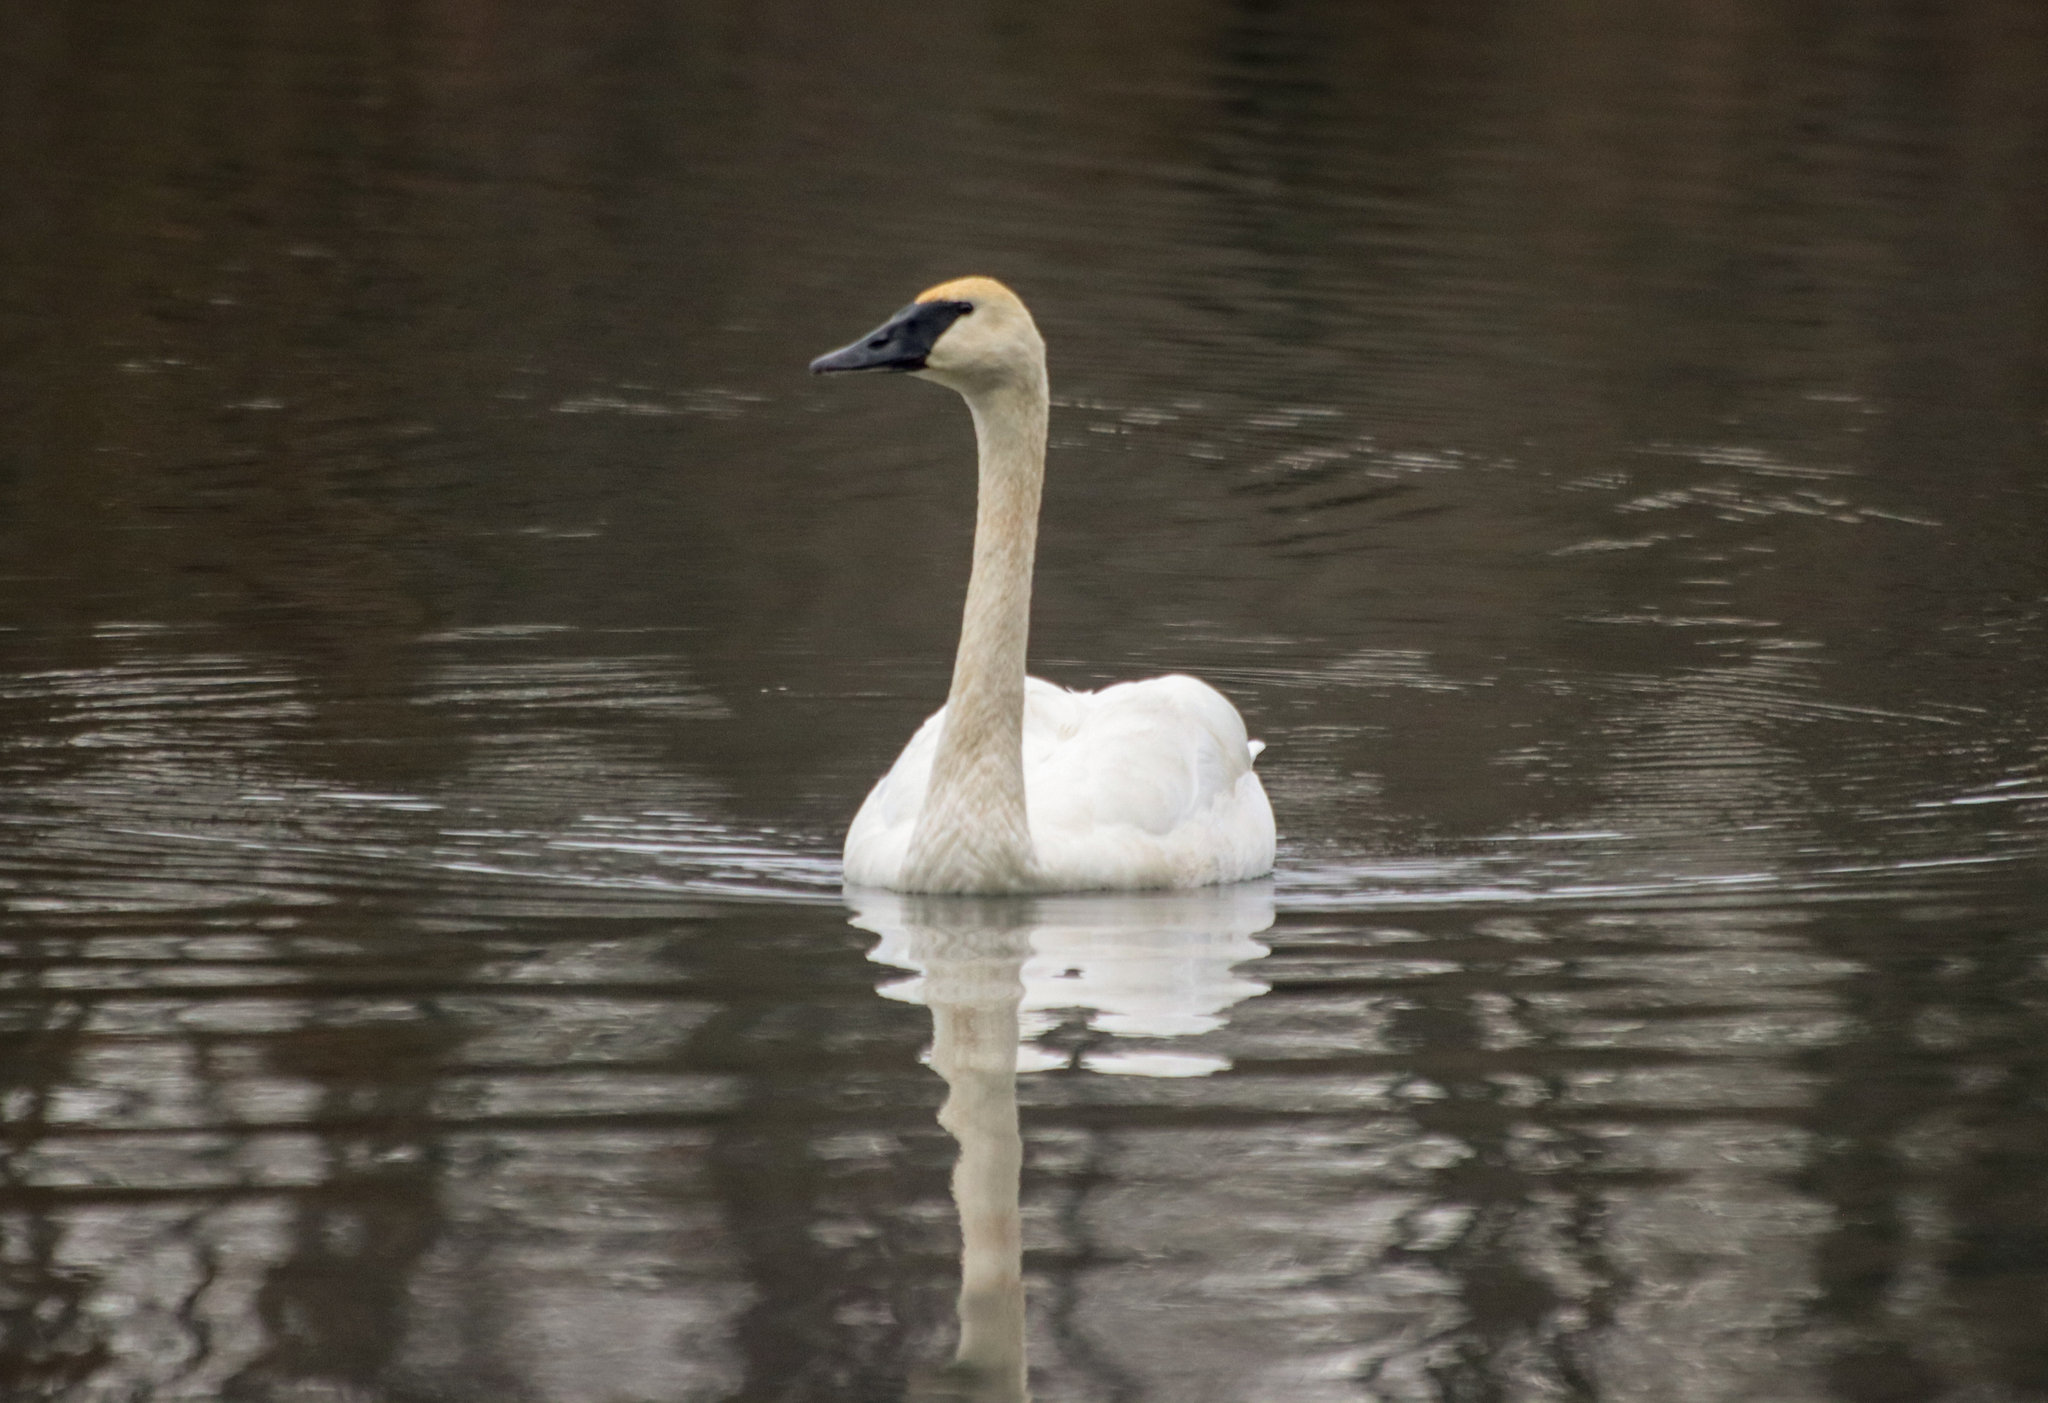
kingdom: Animalia
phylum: Chordata
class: Aves
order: Anseriformes
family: Anatidae
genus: Cygnus
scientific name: Cygnus buccinator
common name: Trumpeter swan
